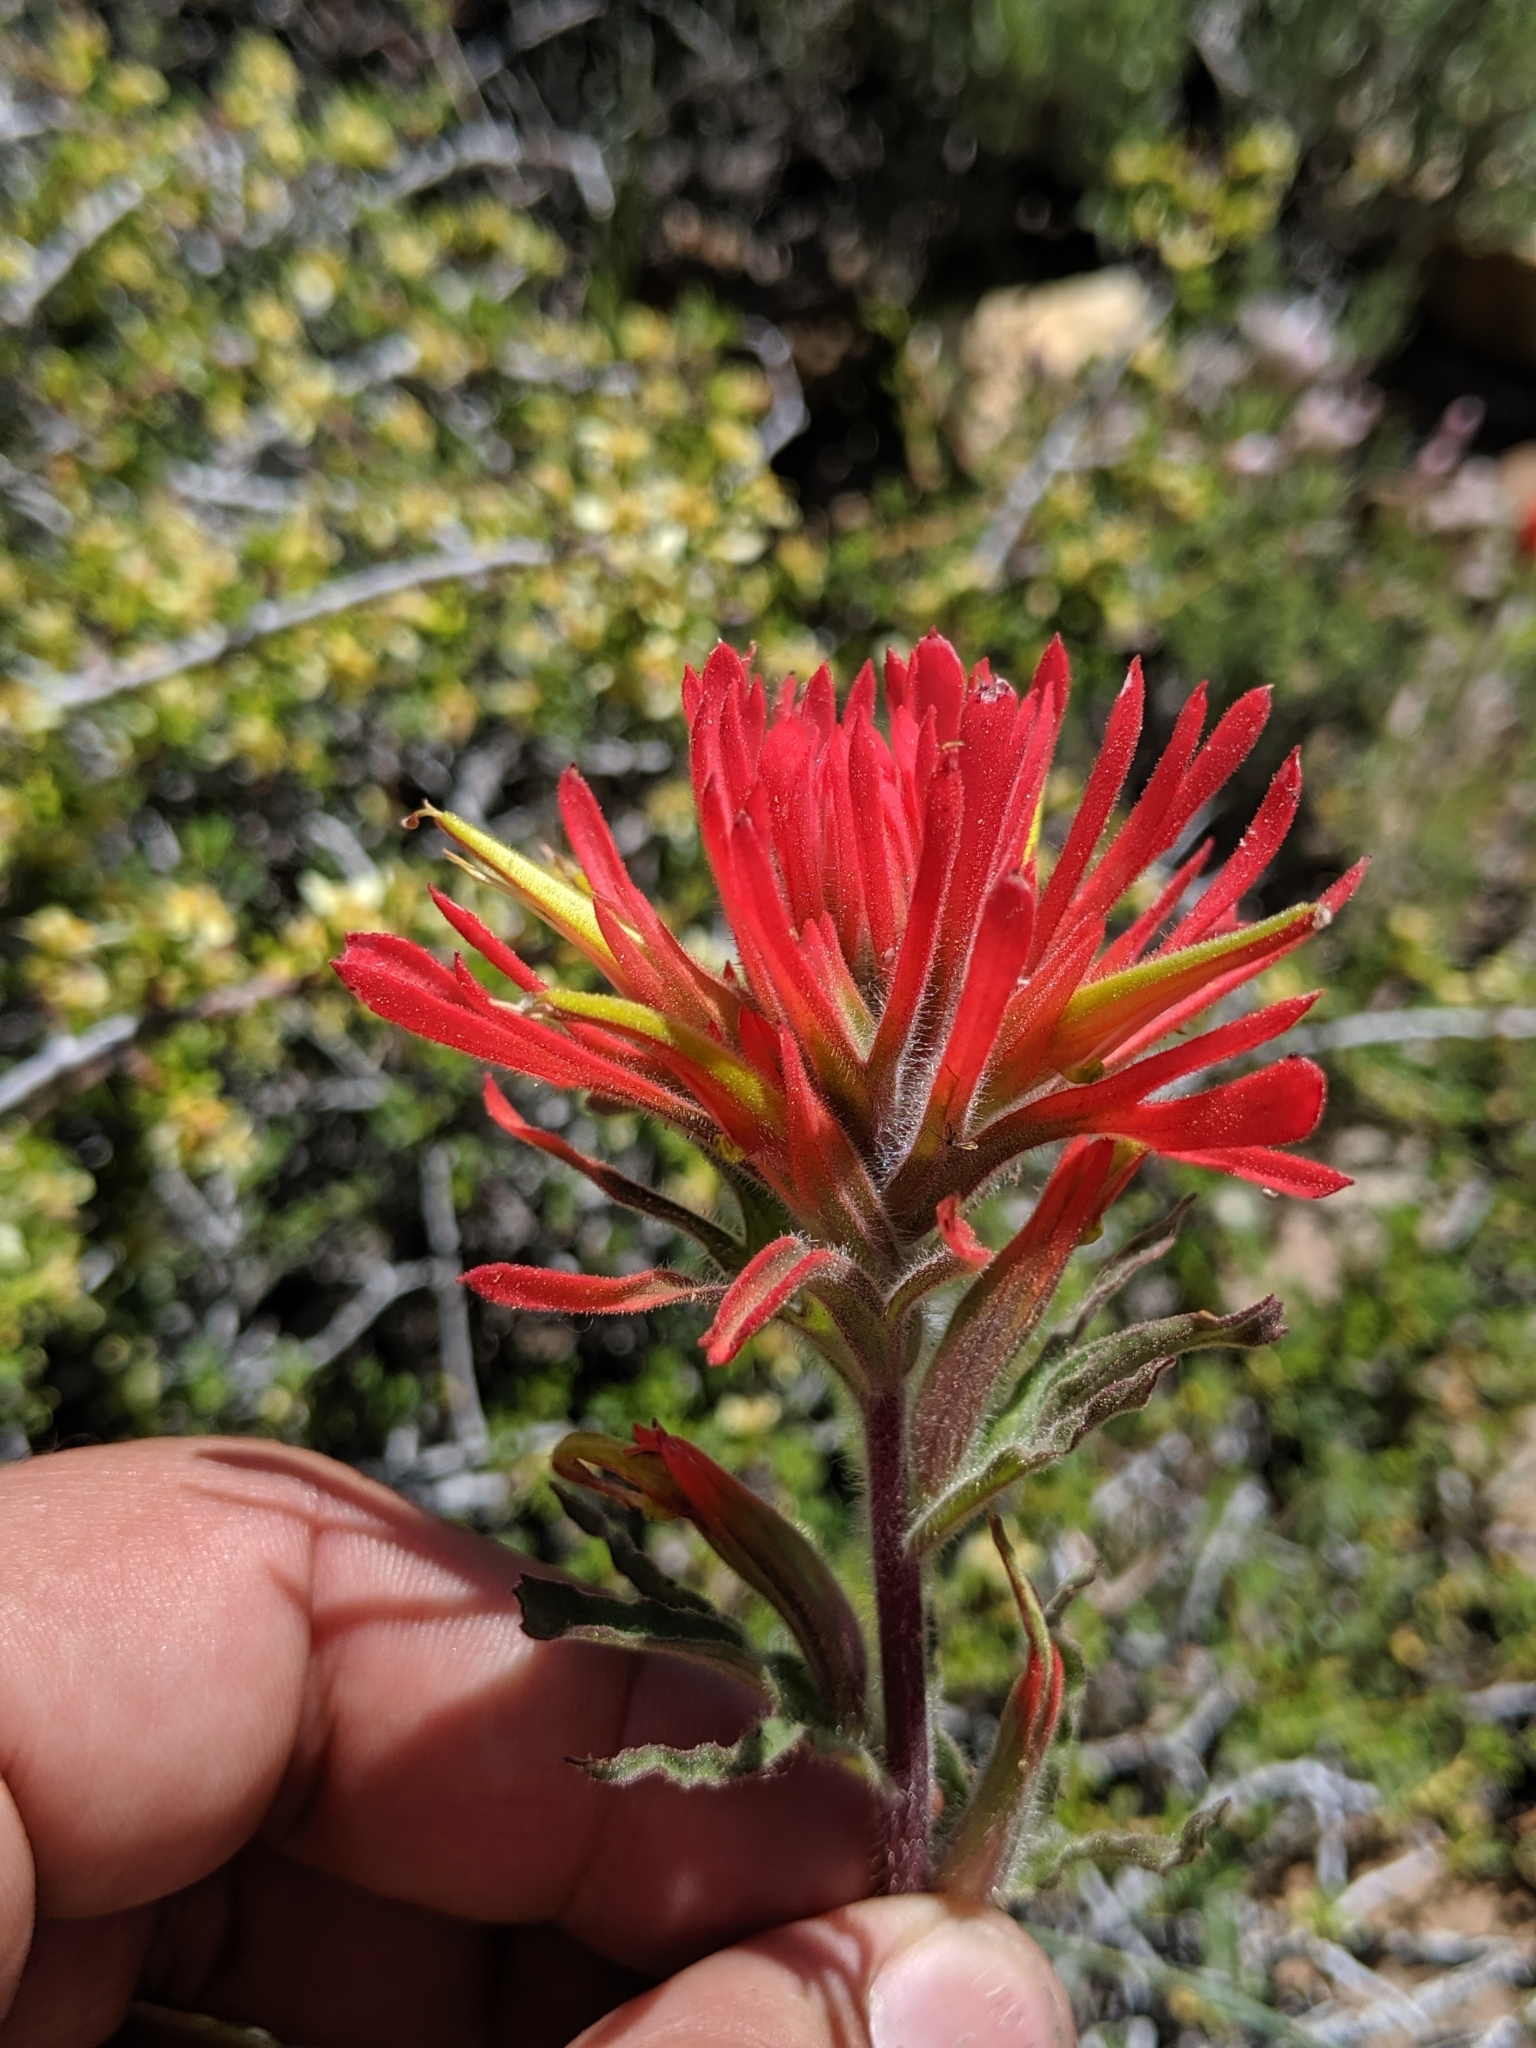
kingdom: Plantae
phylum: Tracheophyta
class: Magnoliopsida
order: Lamiales
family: Orobanchaceae
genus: Castilleja
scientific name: Castilleja applegatei
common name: Wavy-leaf paintbrush
